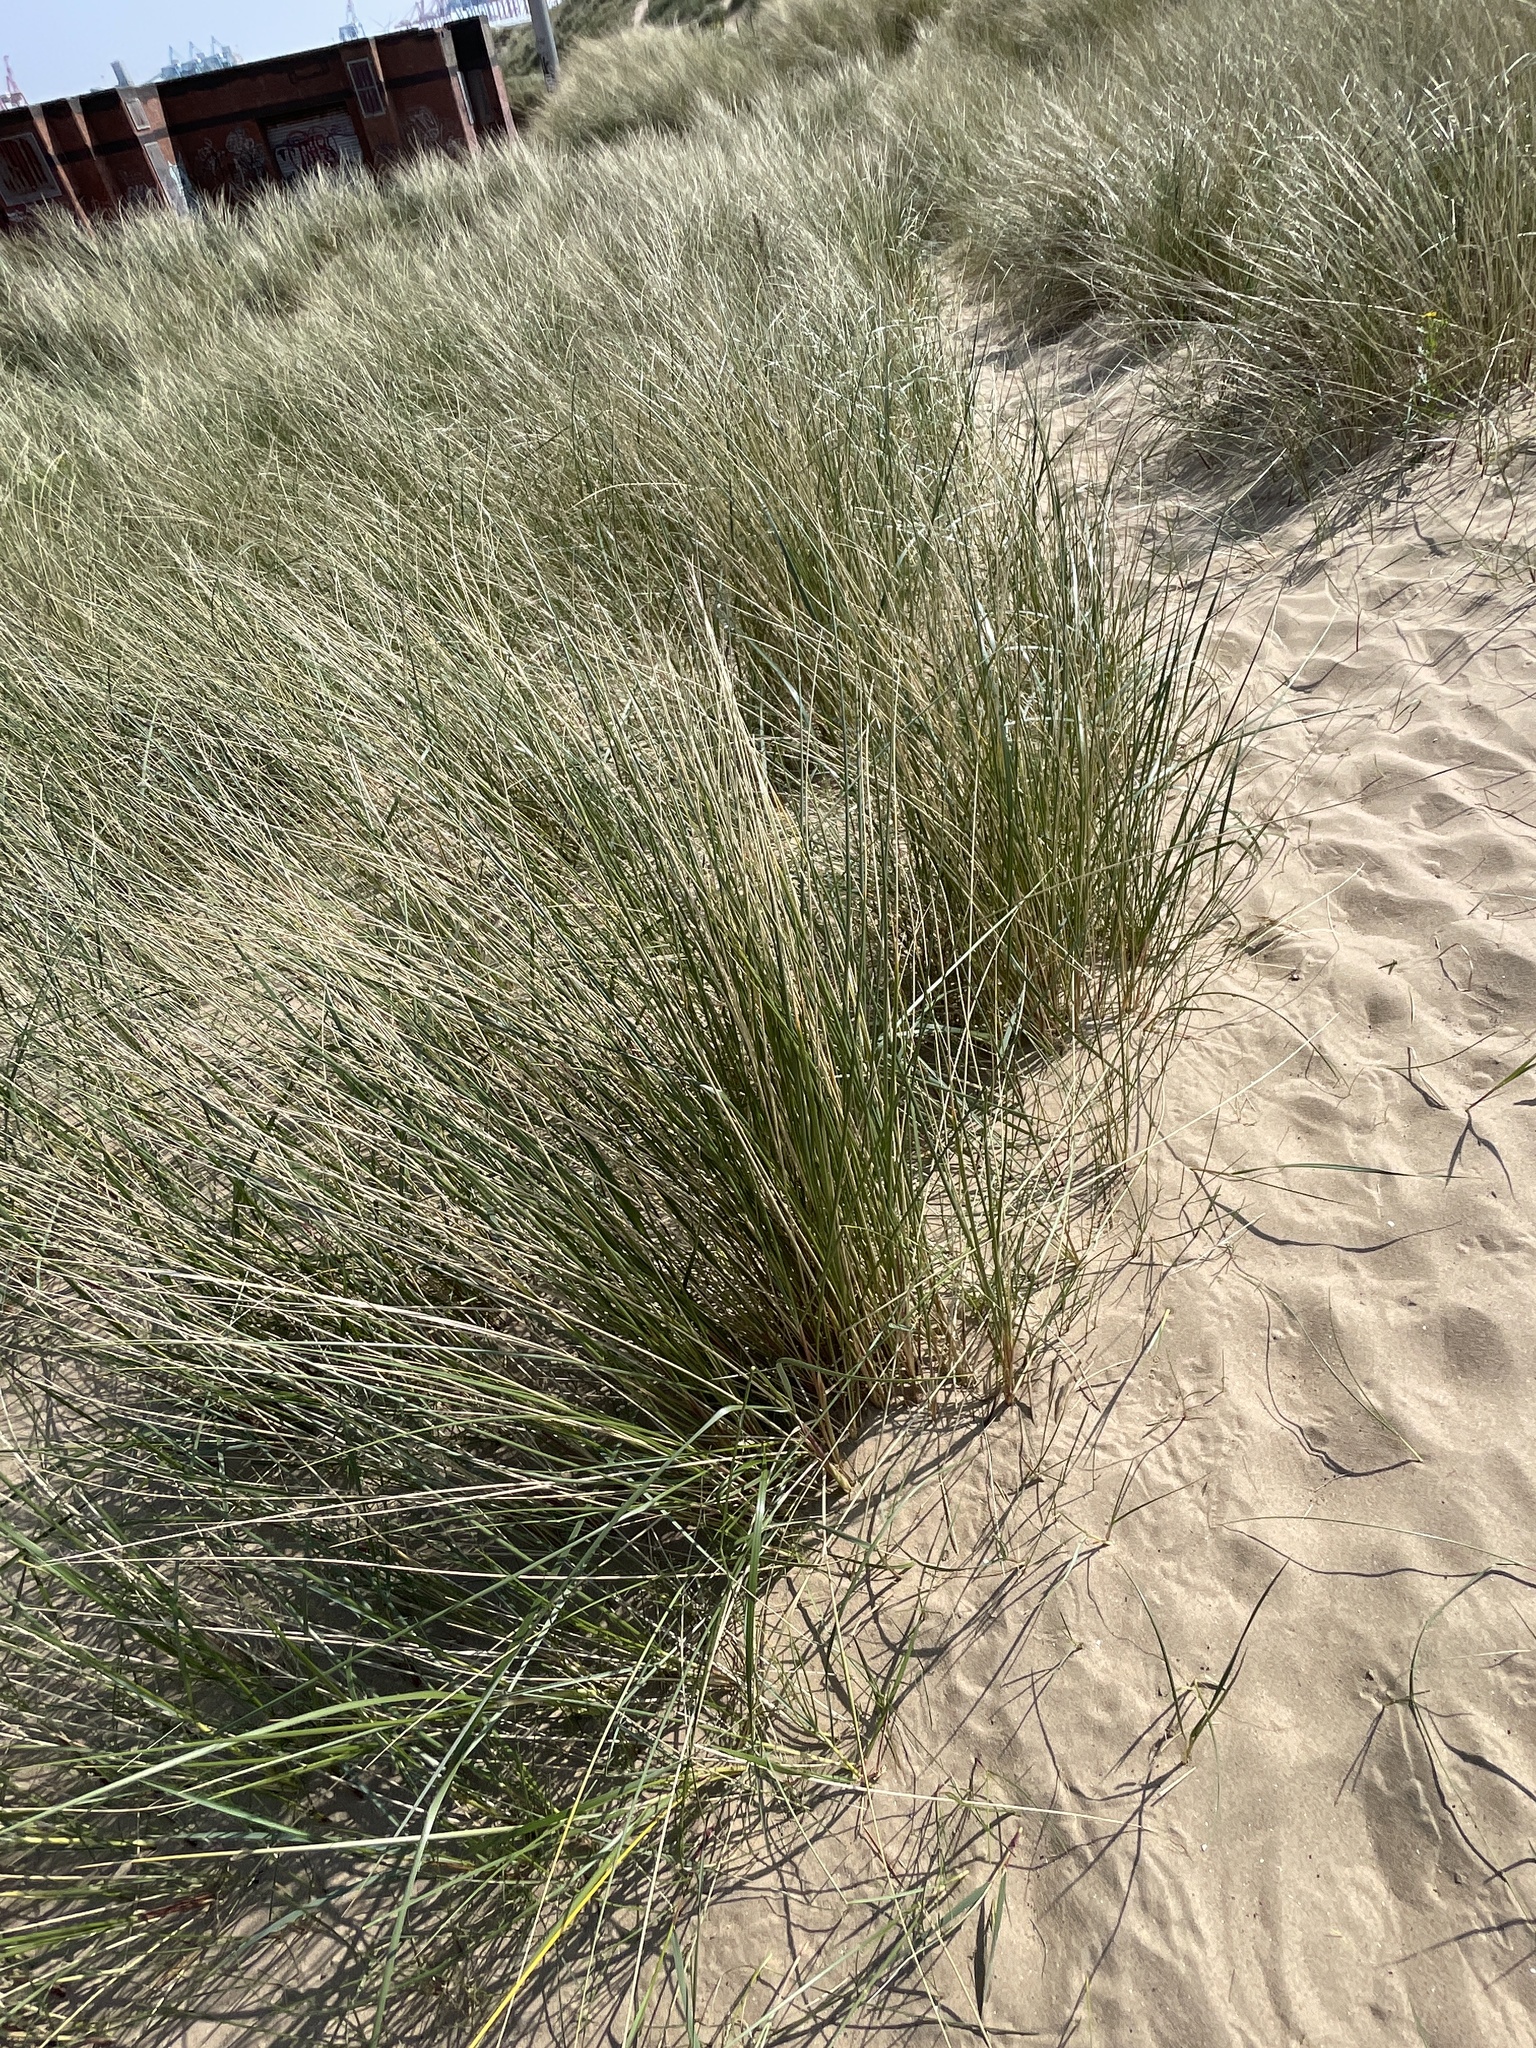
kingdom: Plantae
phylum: Tracheophyta
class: Liliopsida
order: Poales
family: Poaceae
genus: Calamagrostis
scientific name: Calamagrostis arenaria
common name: European beachgrass
